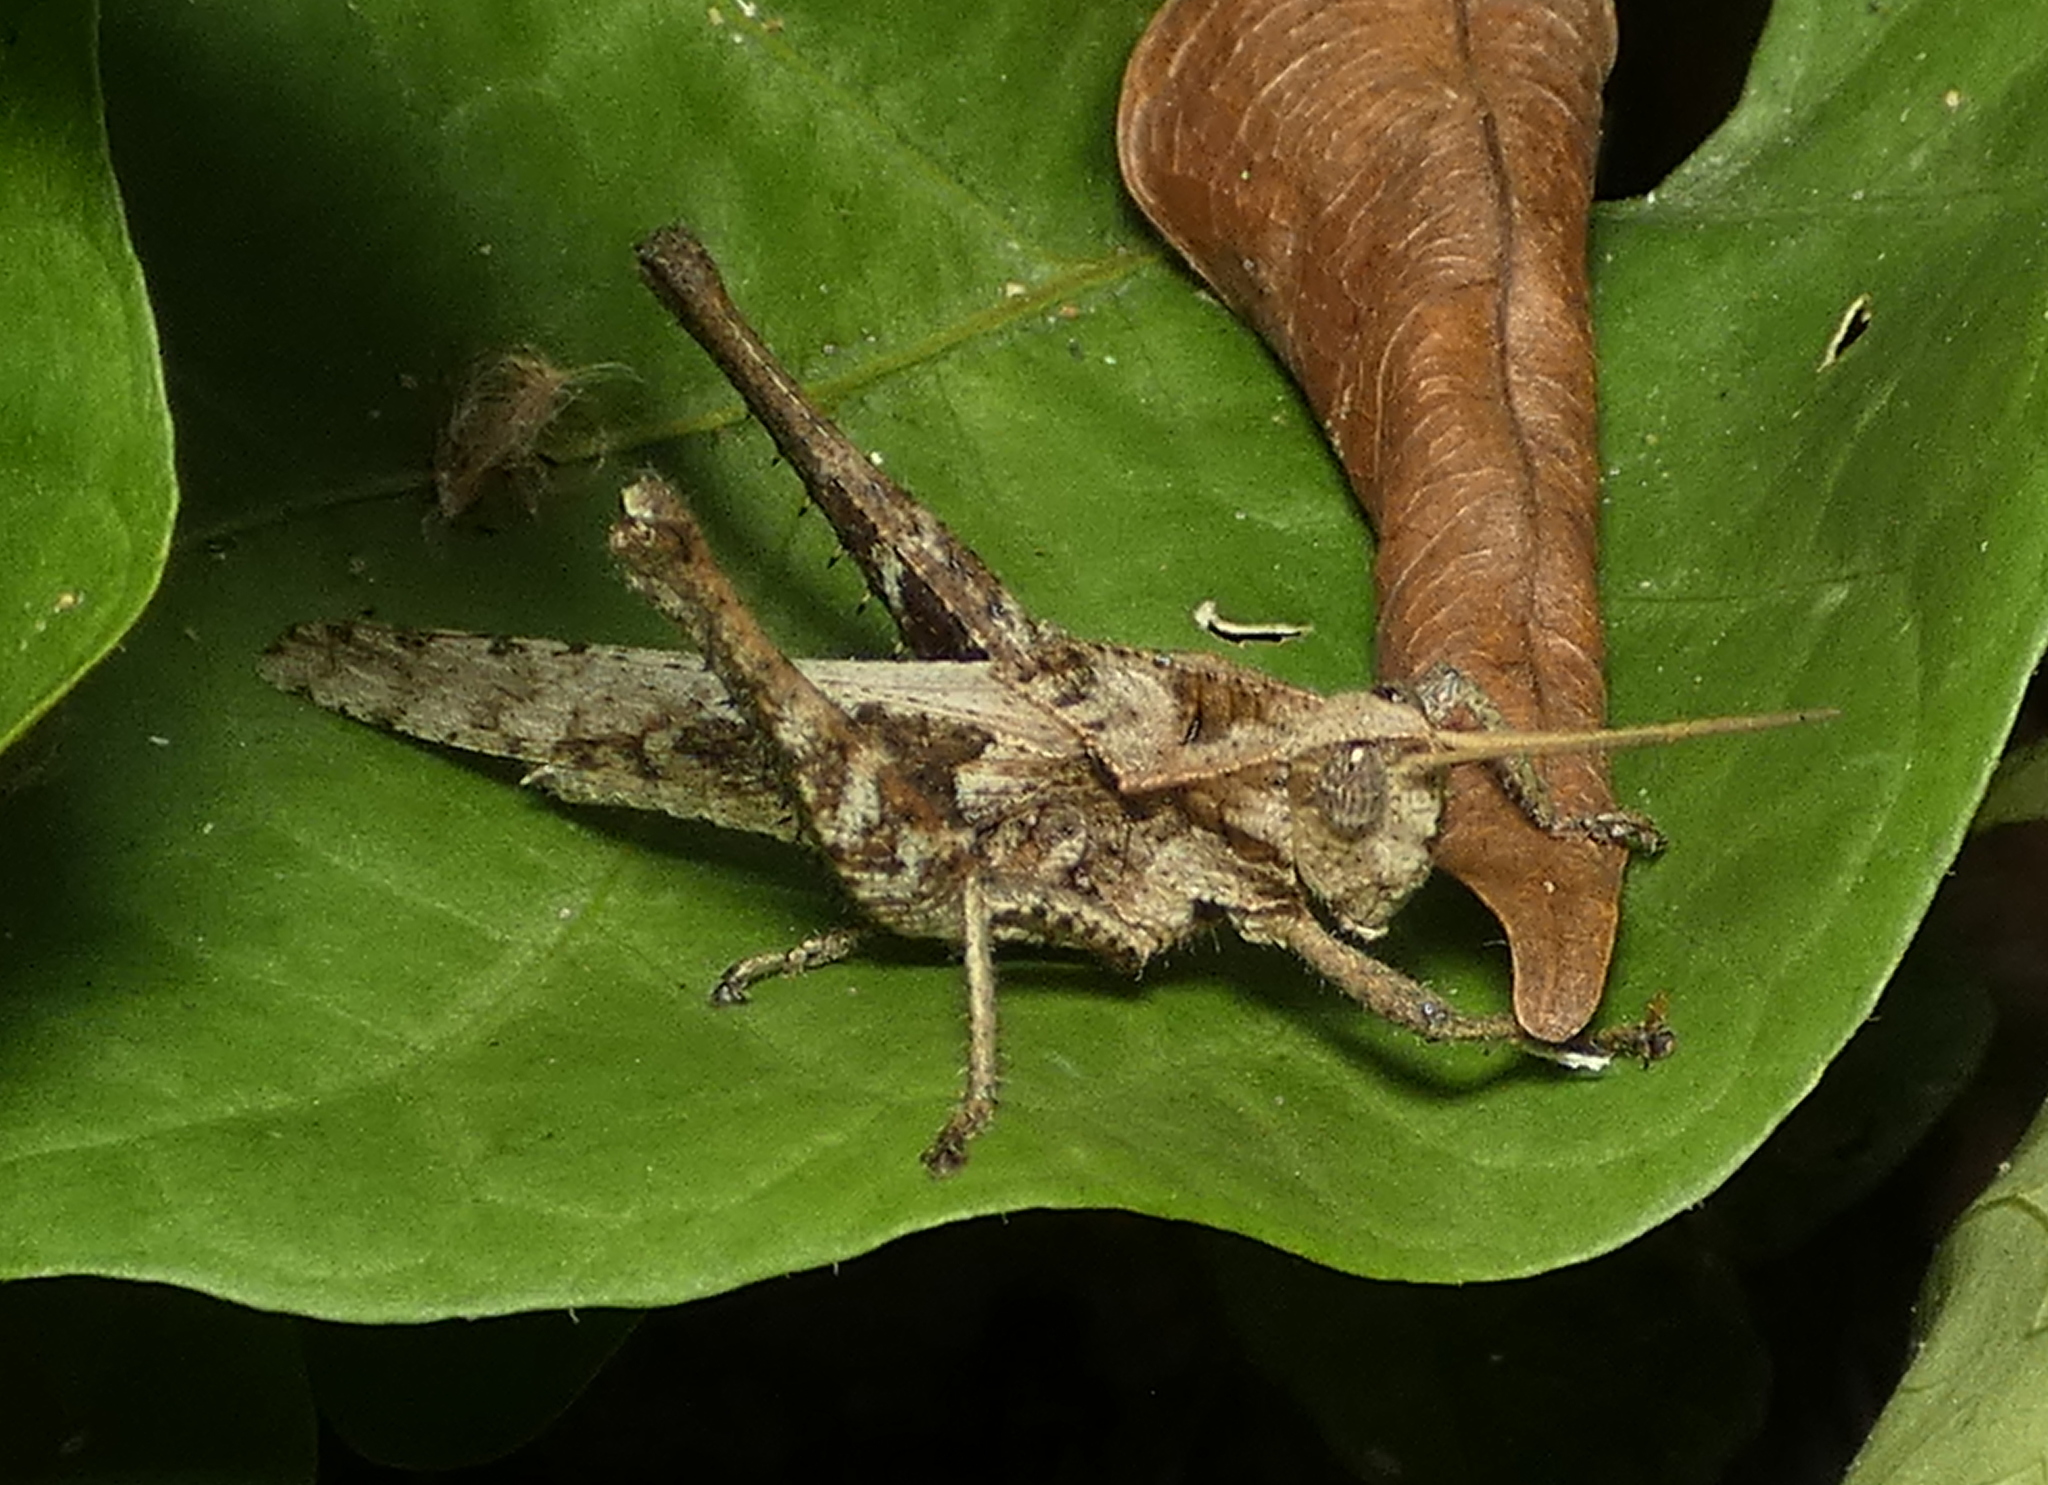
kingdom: Animalia
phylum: Arthropoda
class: Insecta
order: Orthoptera
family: Romaleidae
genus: Xyleus
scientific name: Xyleus discoideus
